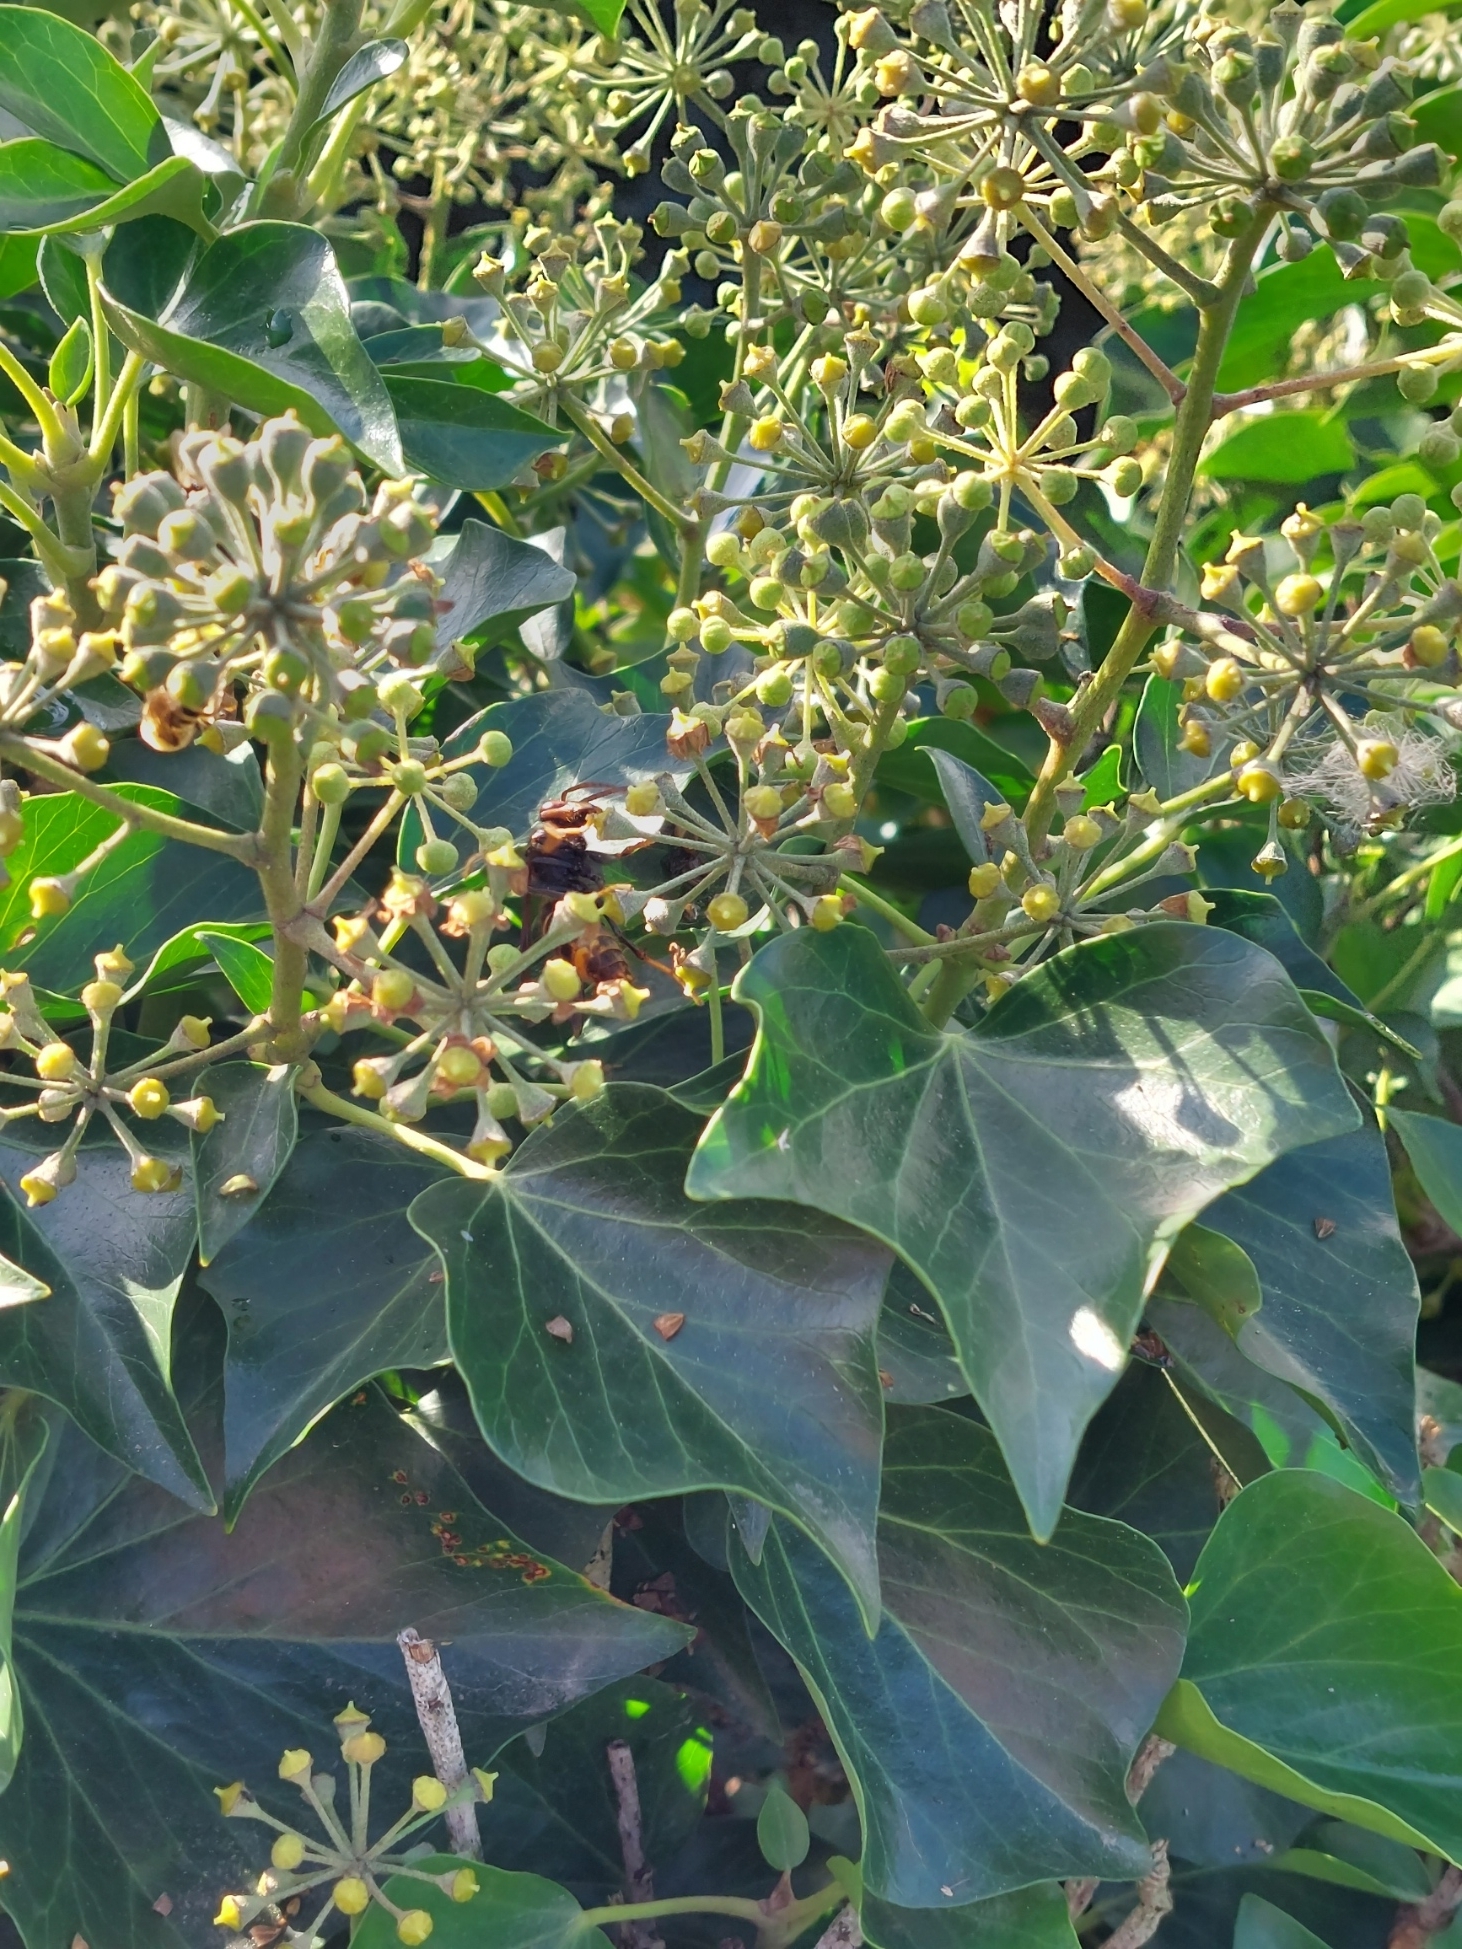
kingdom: Animalia
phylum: Arthropoda
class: Insecta
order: Hymenoptera
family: Vespidae
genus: Vespa
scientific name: Vespa velutina
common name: Asian hornet
